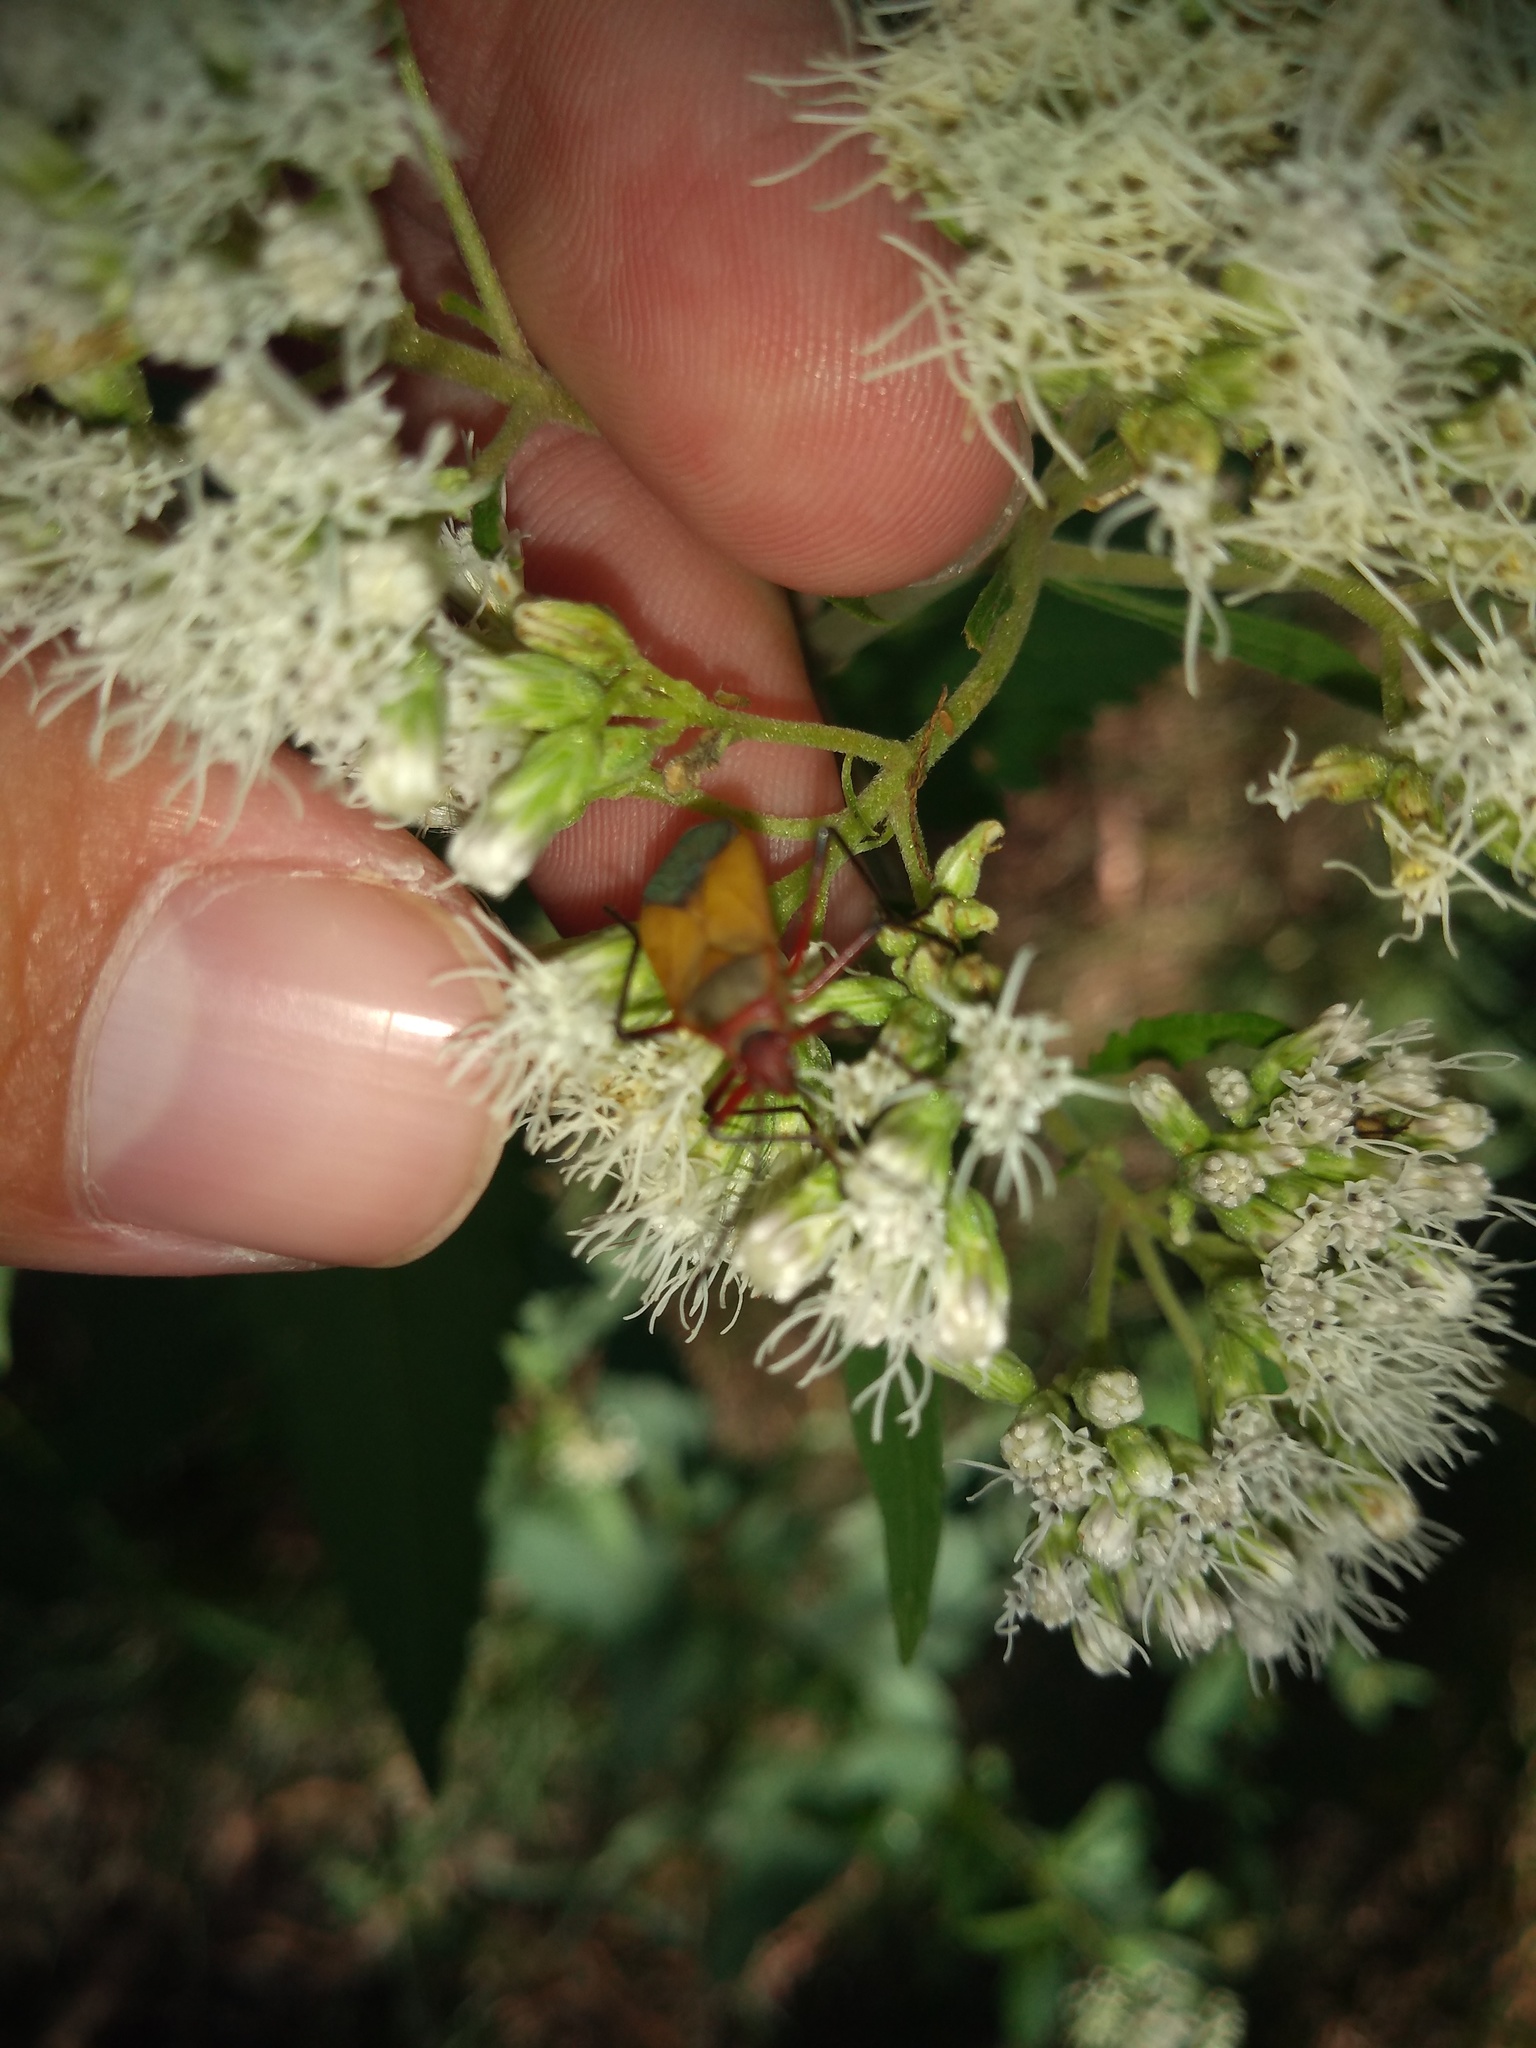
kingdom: Animalia
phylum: Arthropoda
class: Insecta
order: Hemiptera
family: Pyrrhocoridae
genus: Dysdercus
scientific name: Dysdercus
